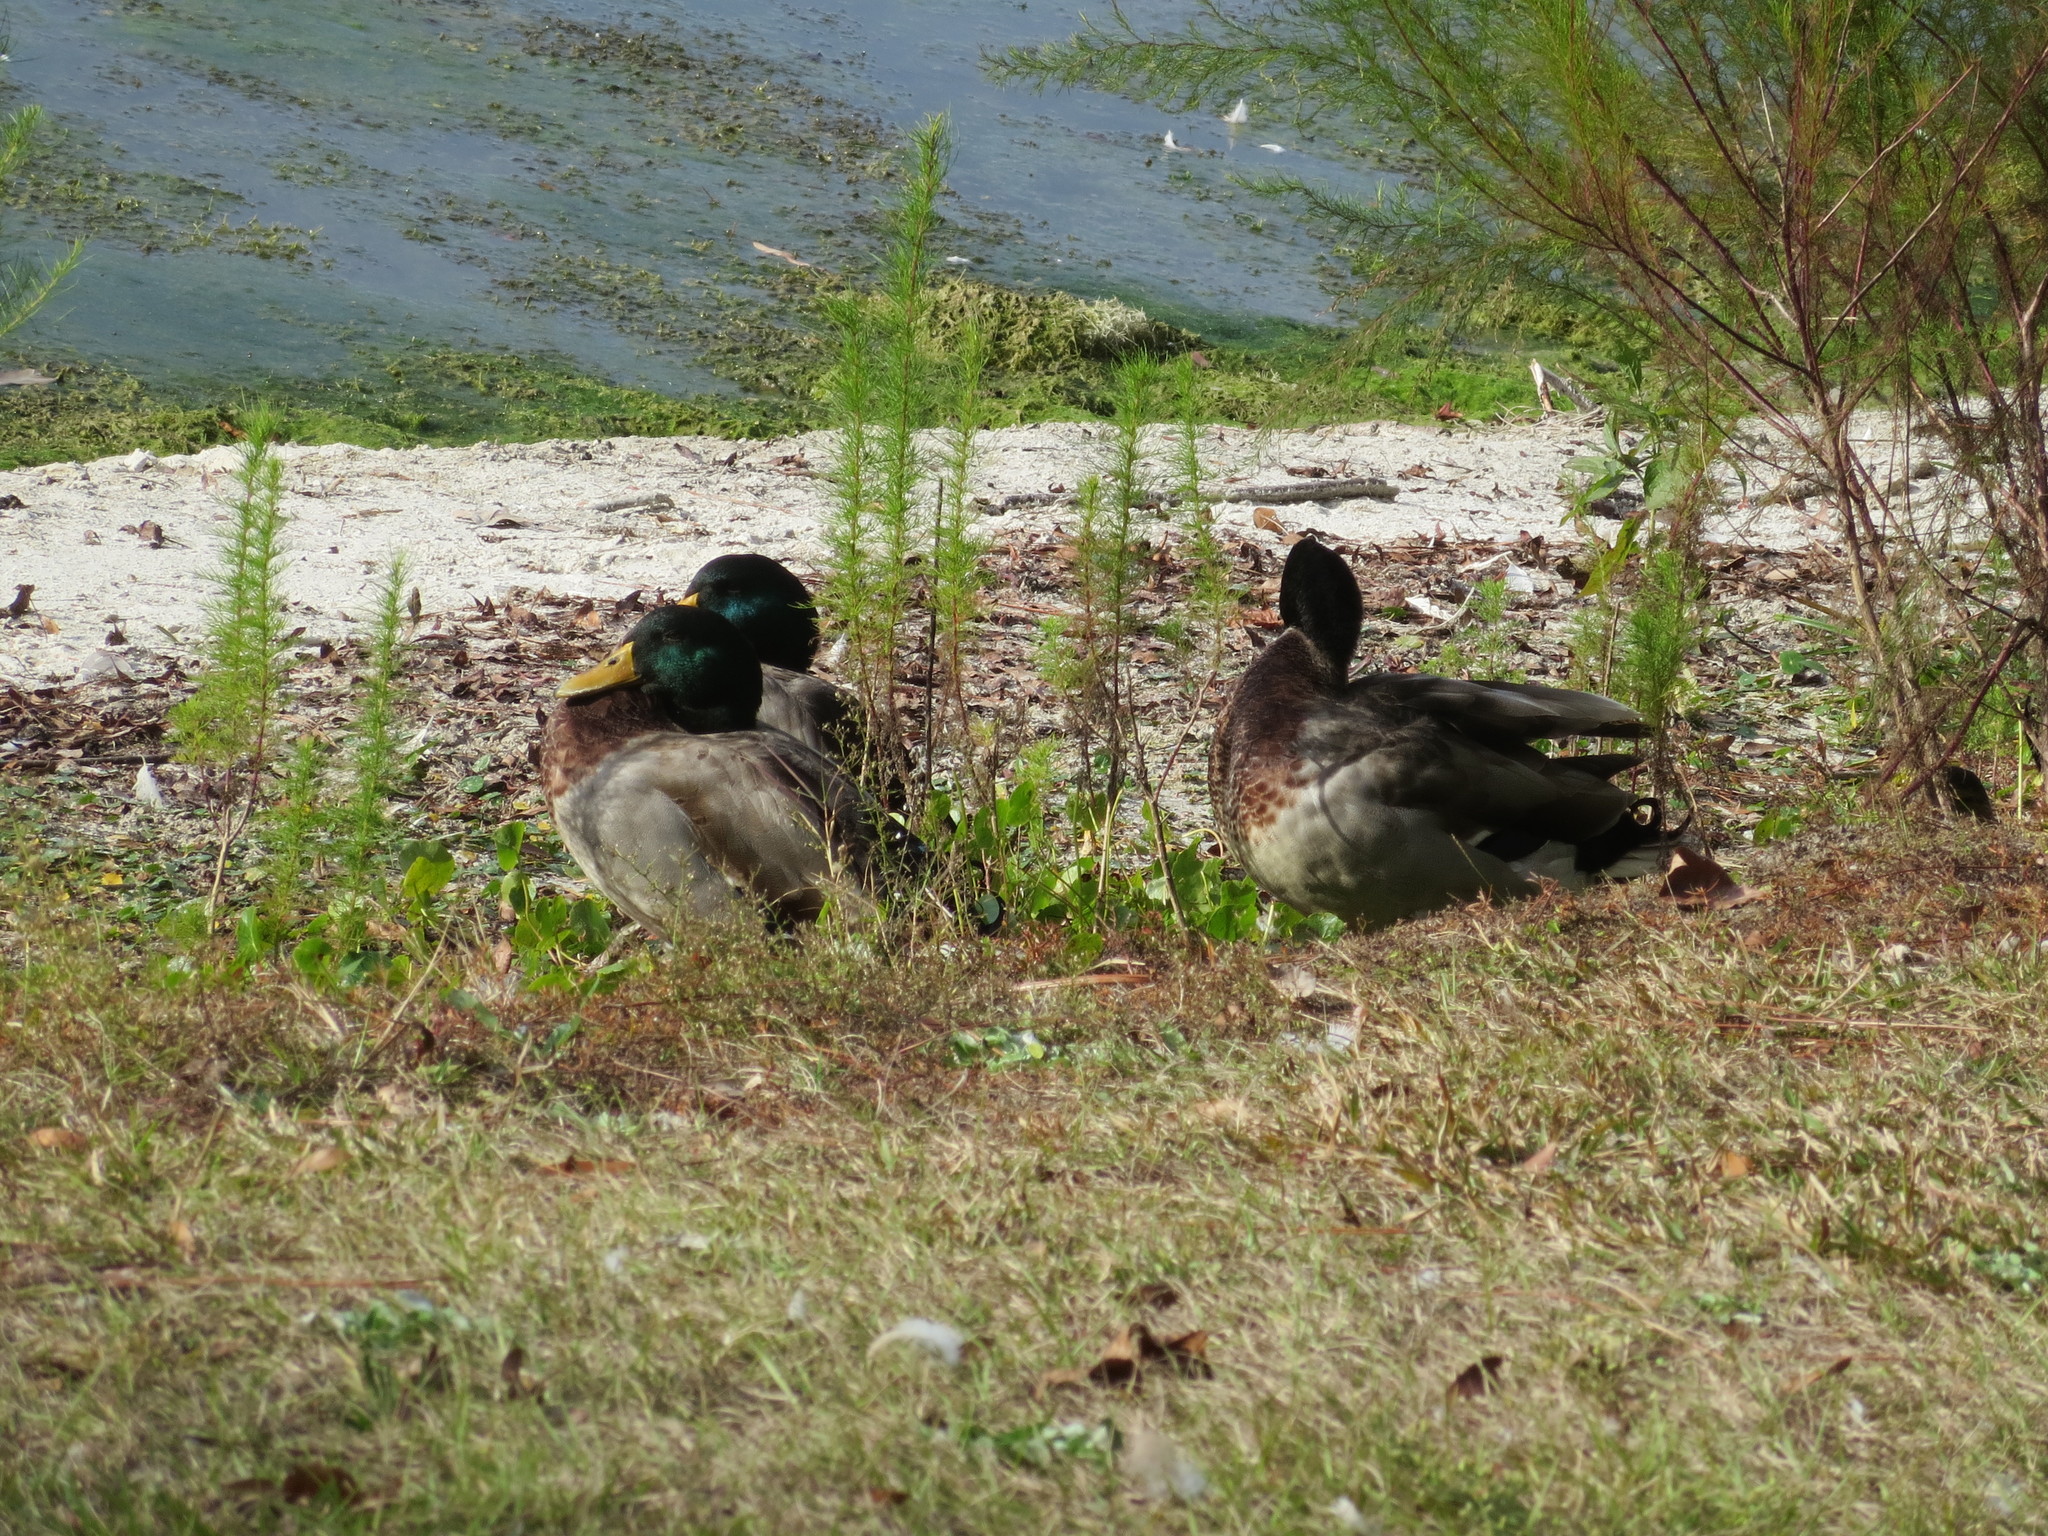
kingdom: Animalia
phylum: Chordata
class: Aves
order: Anseriformes
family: Anatidae
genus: Anas
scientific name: Anas platyrhynchos
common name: Mallard
